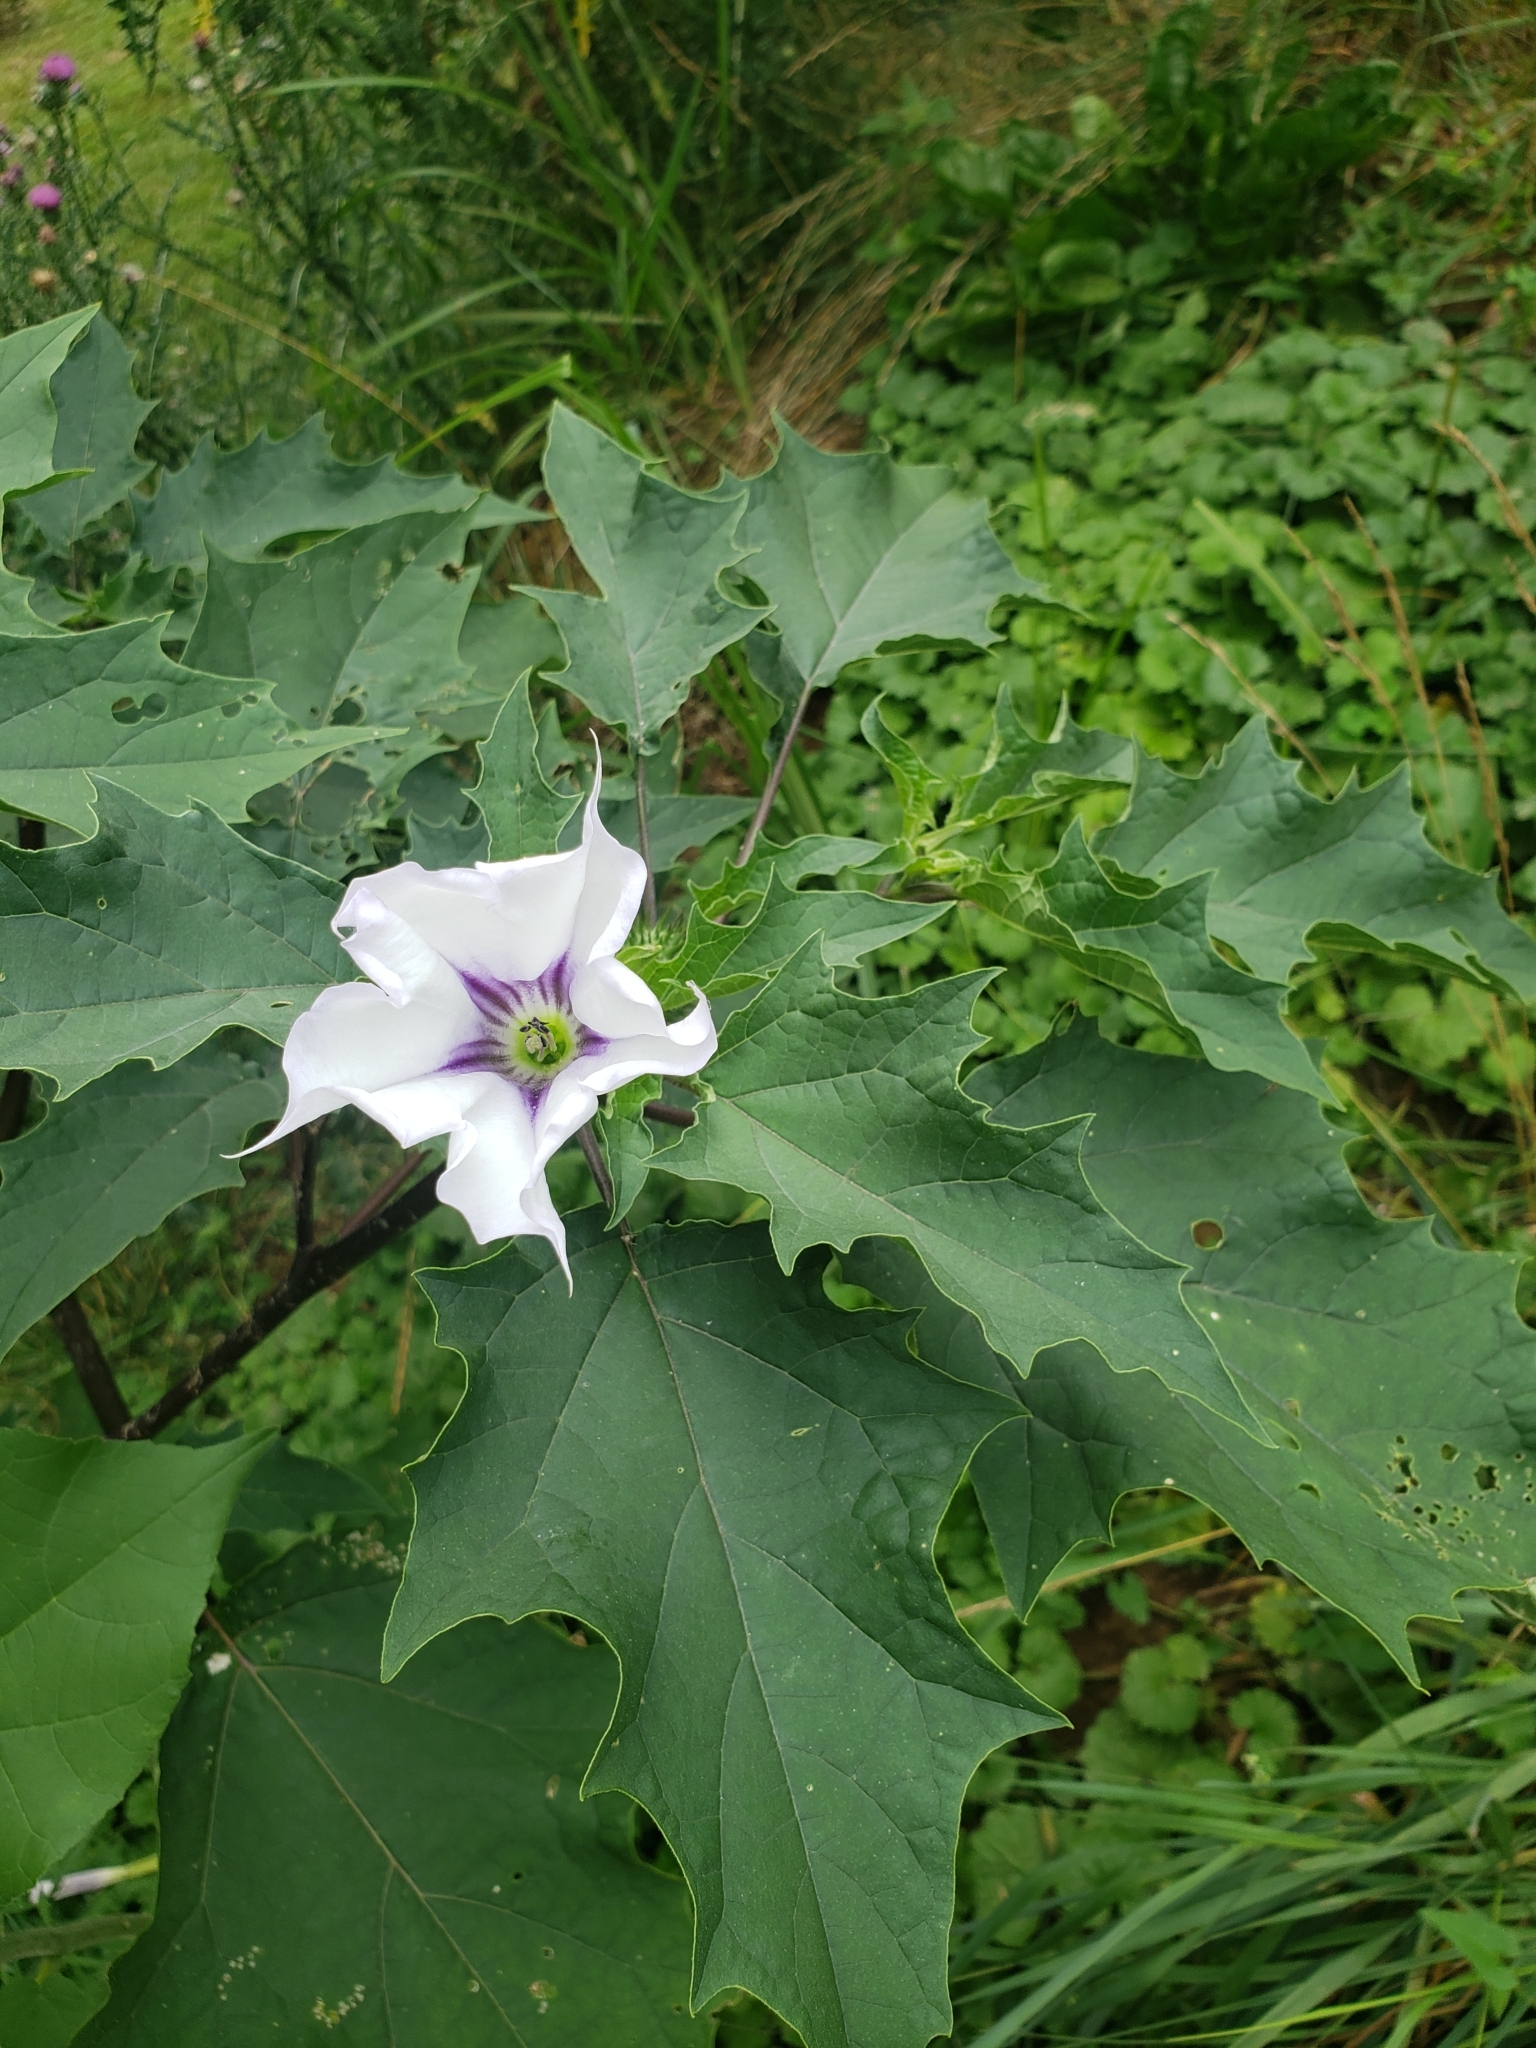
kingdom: Plantae
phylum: Tracheophyta
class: Magnoliopsida
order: Solanales
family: Solanaceae
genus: Datura
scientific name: Datura stramonium
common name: Thorn-apple
